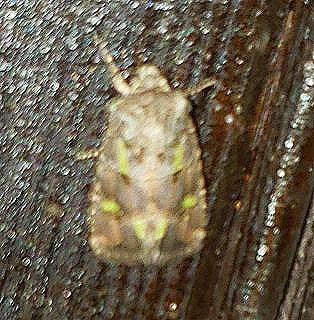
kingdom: Animalia
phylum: Arthropoda
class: Insecta
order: Lepidoptera
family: Noctuidae
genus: Lacinipolia
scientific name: Lacinipolia renigera
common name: Kidney-spotted minor
